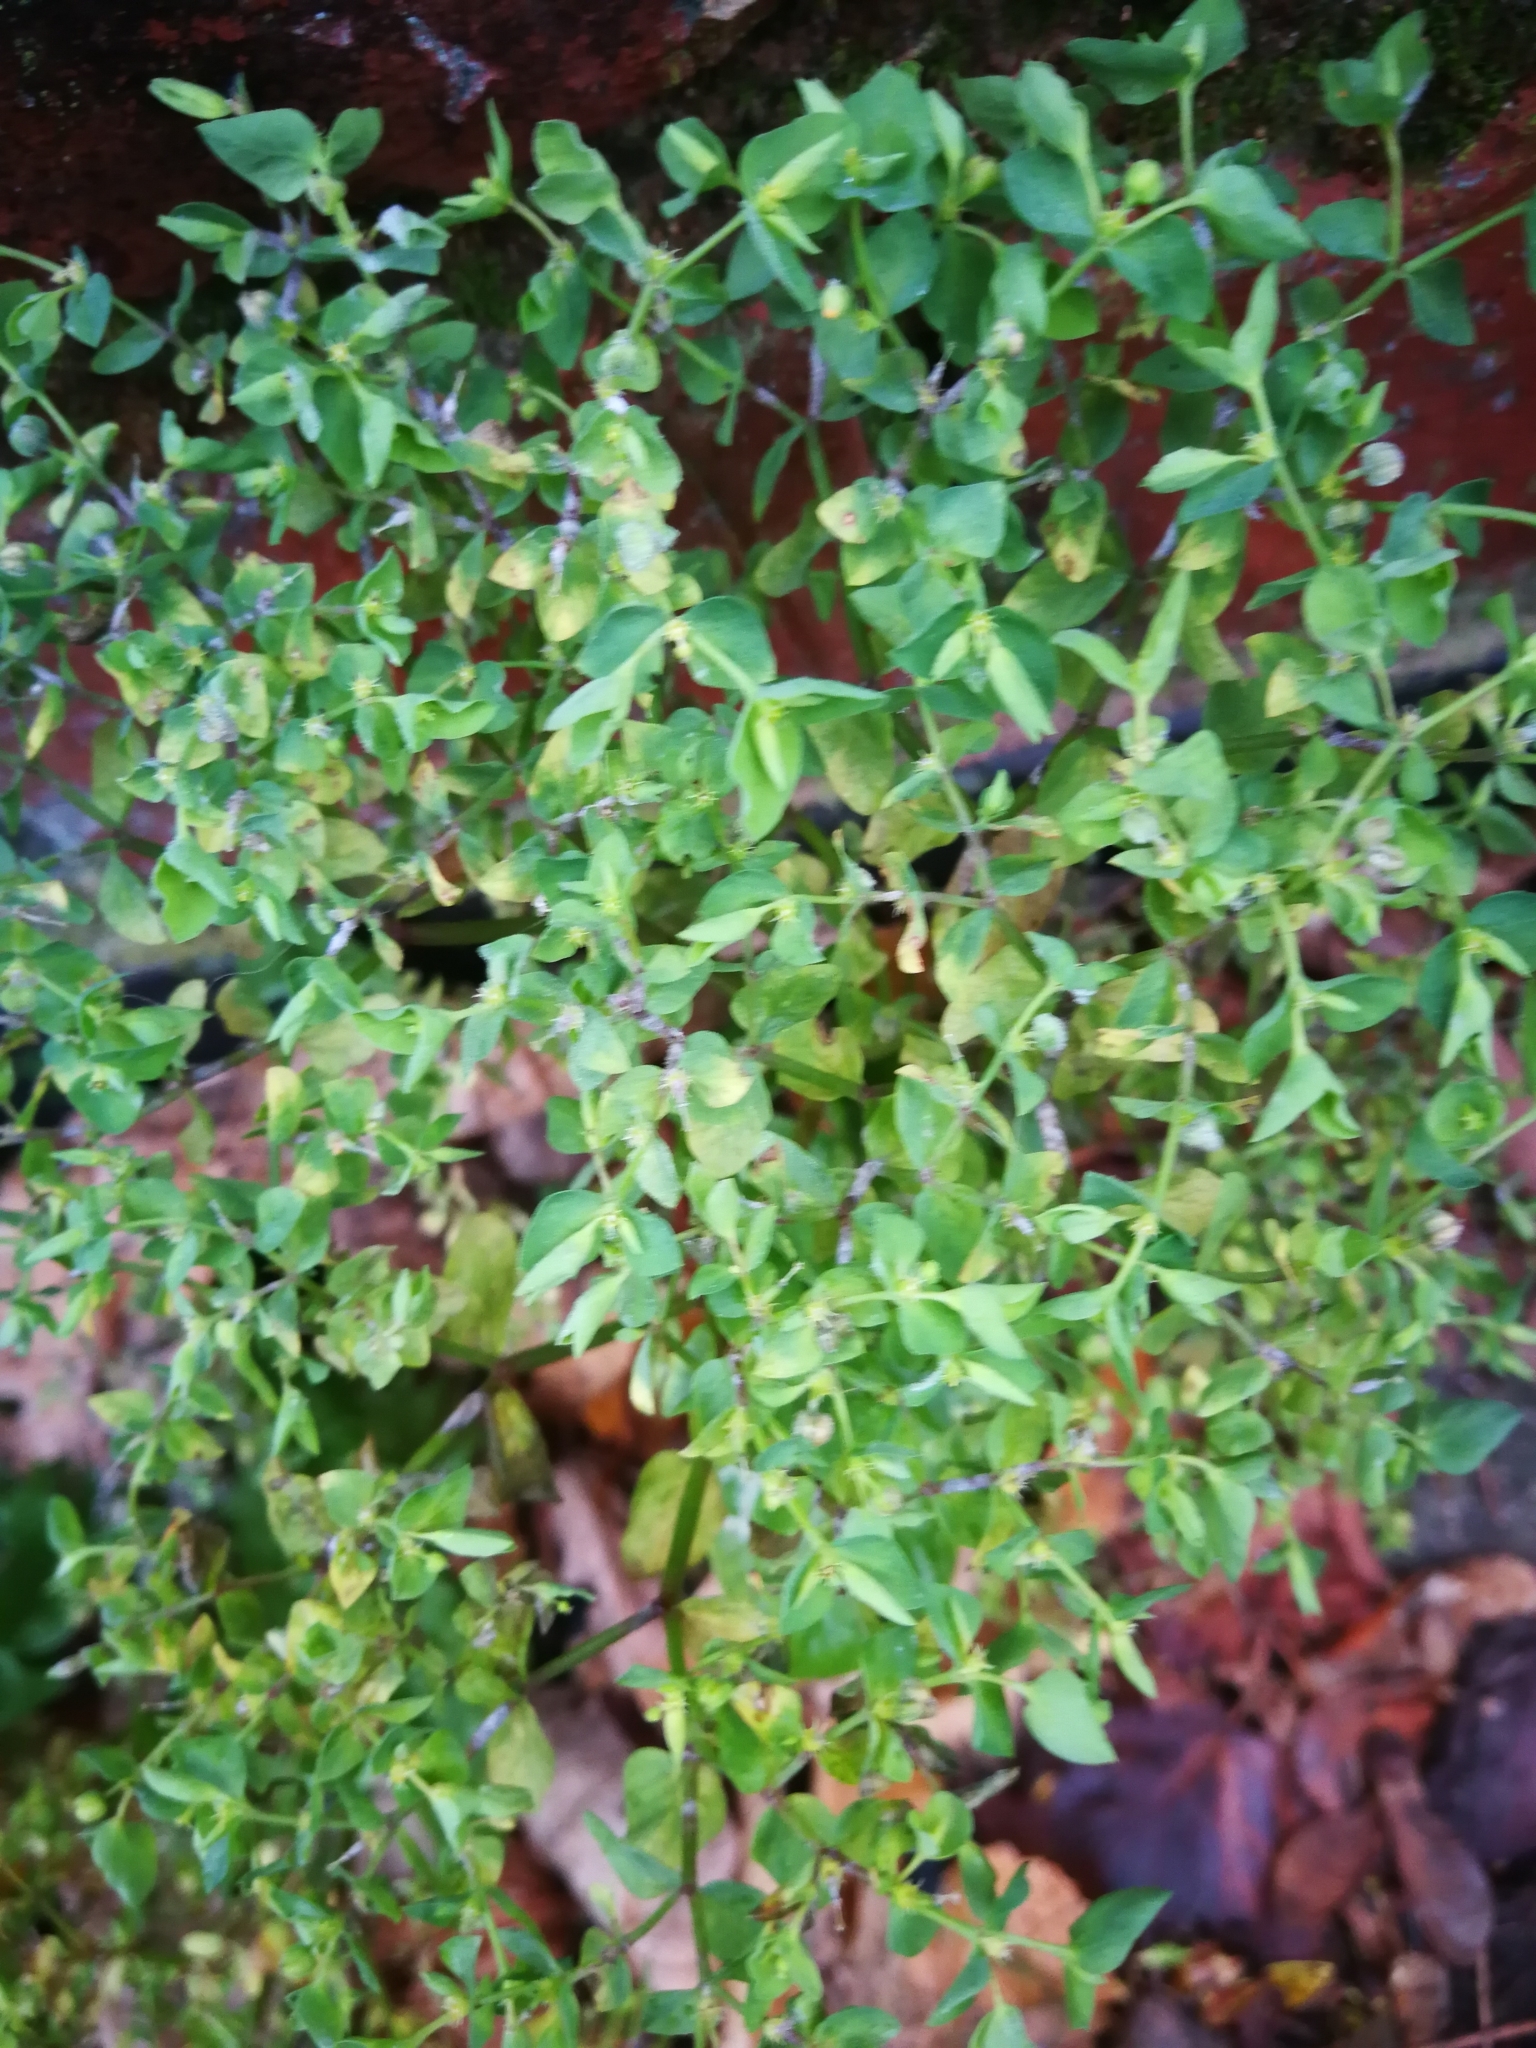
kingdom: Plantae
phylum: Tracheophyta
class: Magnoliopsida
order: Malpighiales
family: Euphorbiaceae
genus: Euphorbia
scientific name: Euphorbia peplus
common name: Petty spurge
